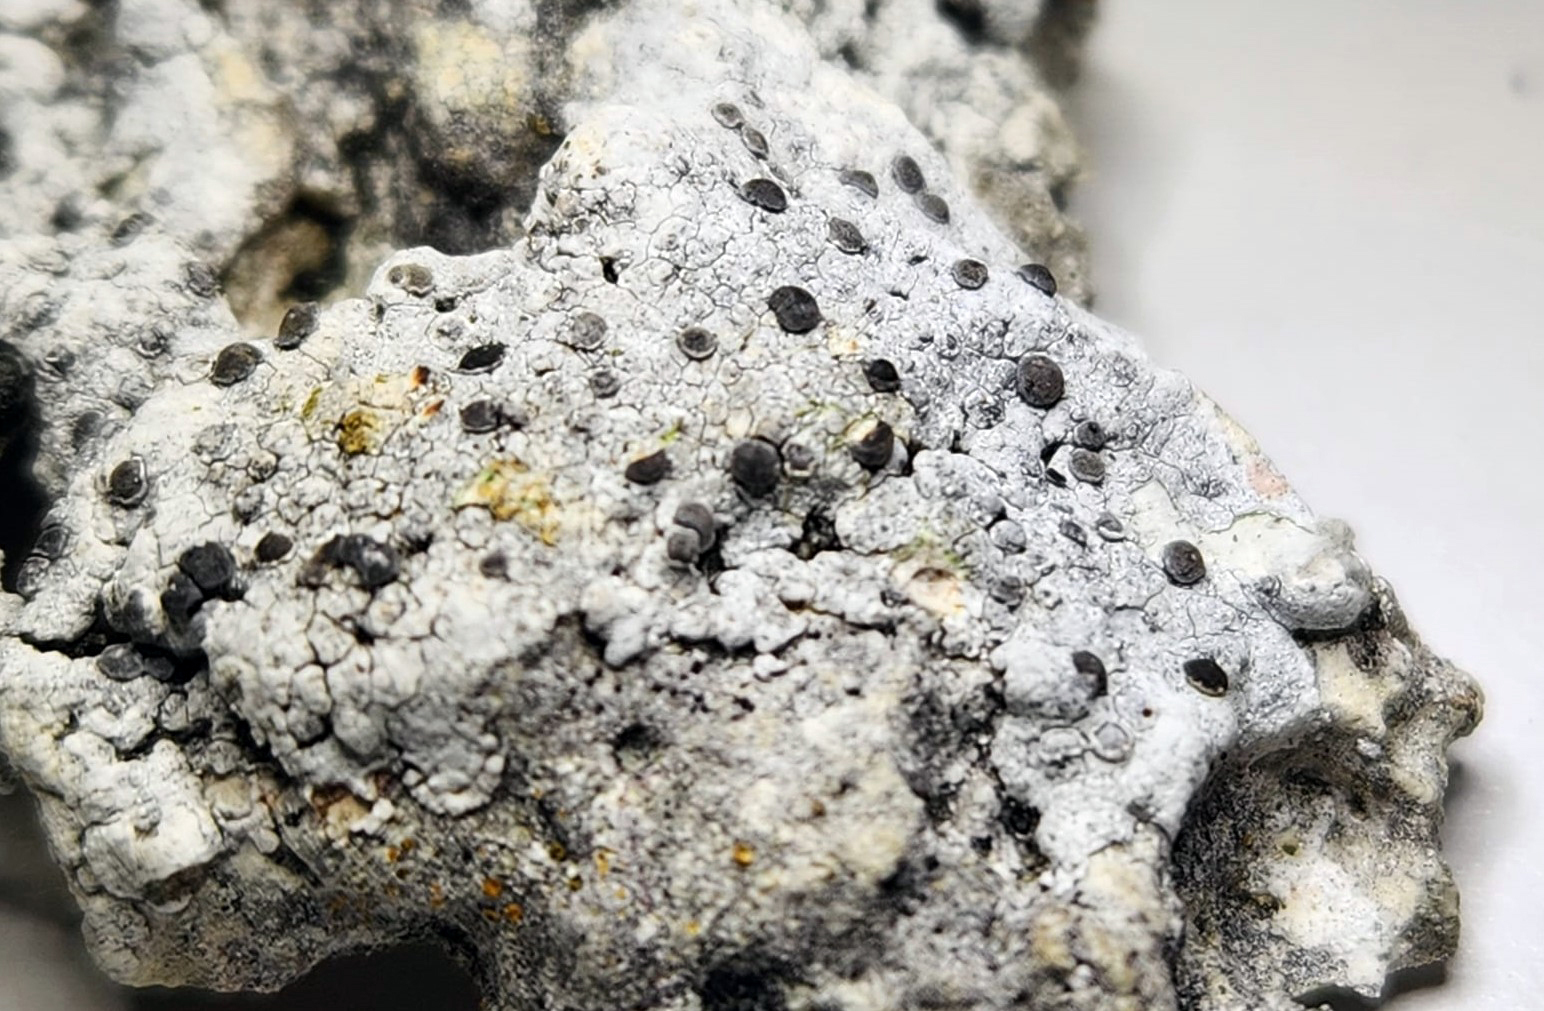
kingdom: Fungi
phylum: Ascomycota
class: Lecanoromycetes
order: Caliciales
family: Caliciaceae
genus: Buellia
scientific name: Buellia albulella
